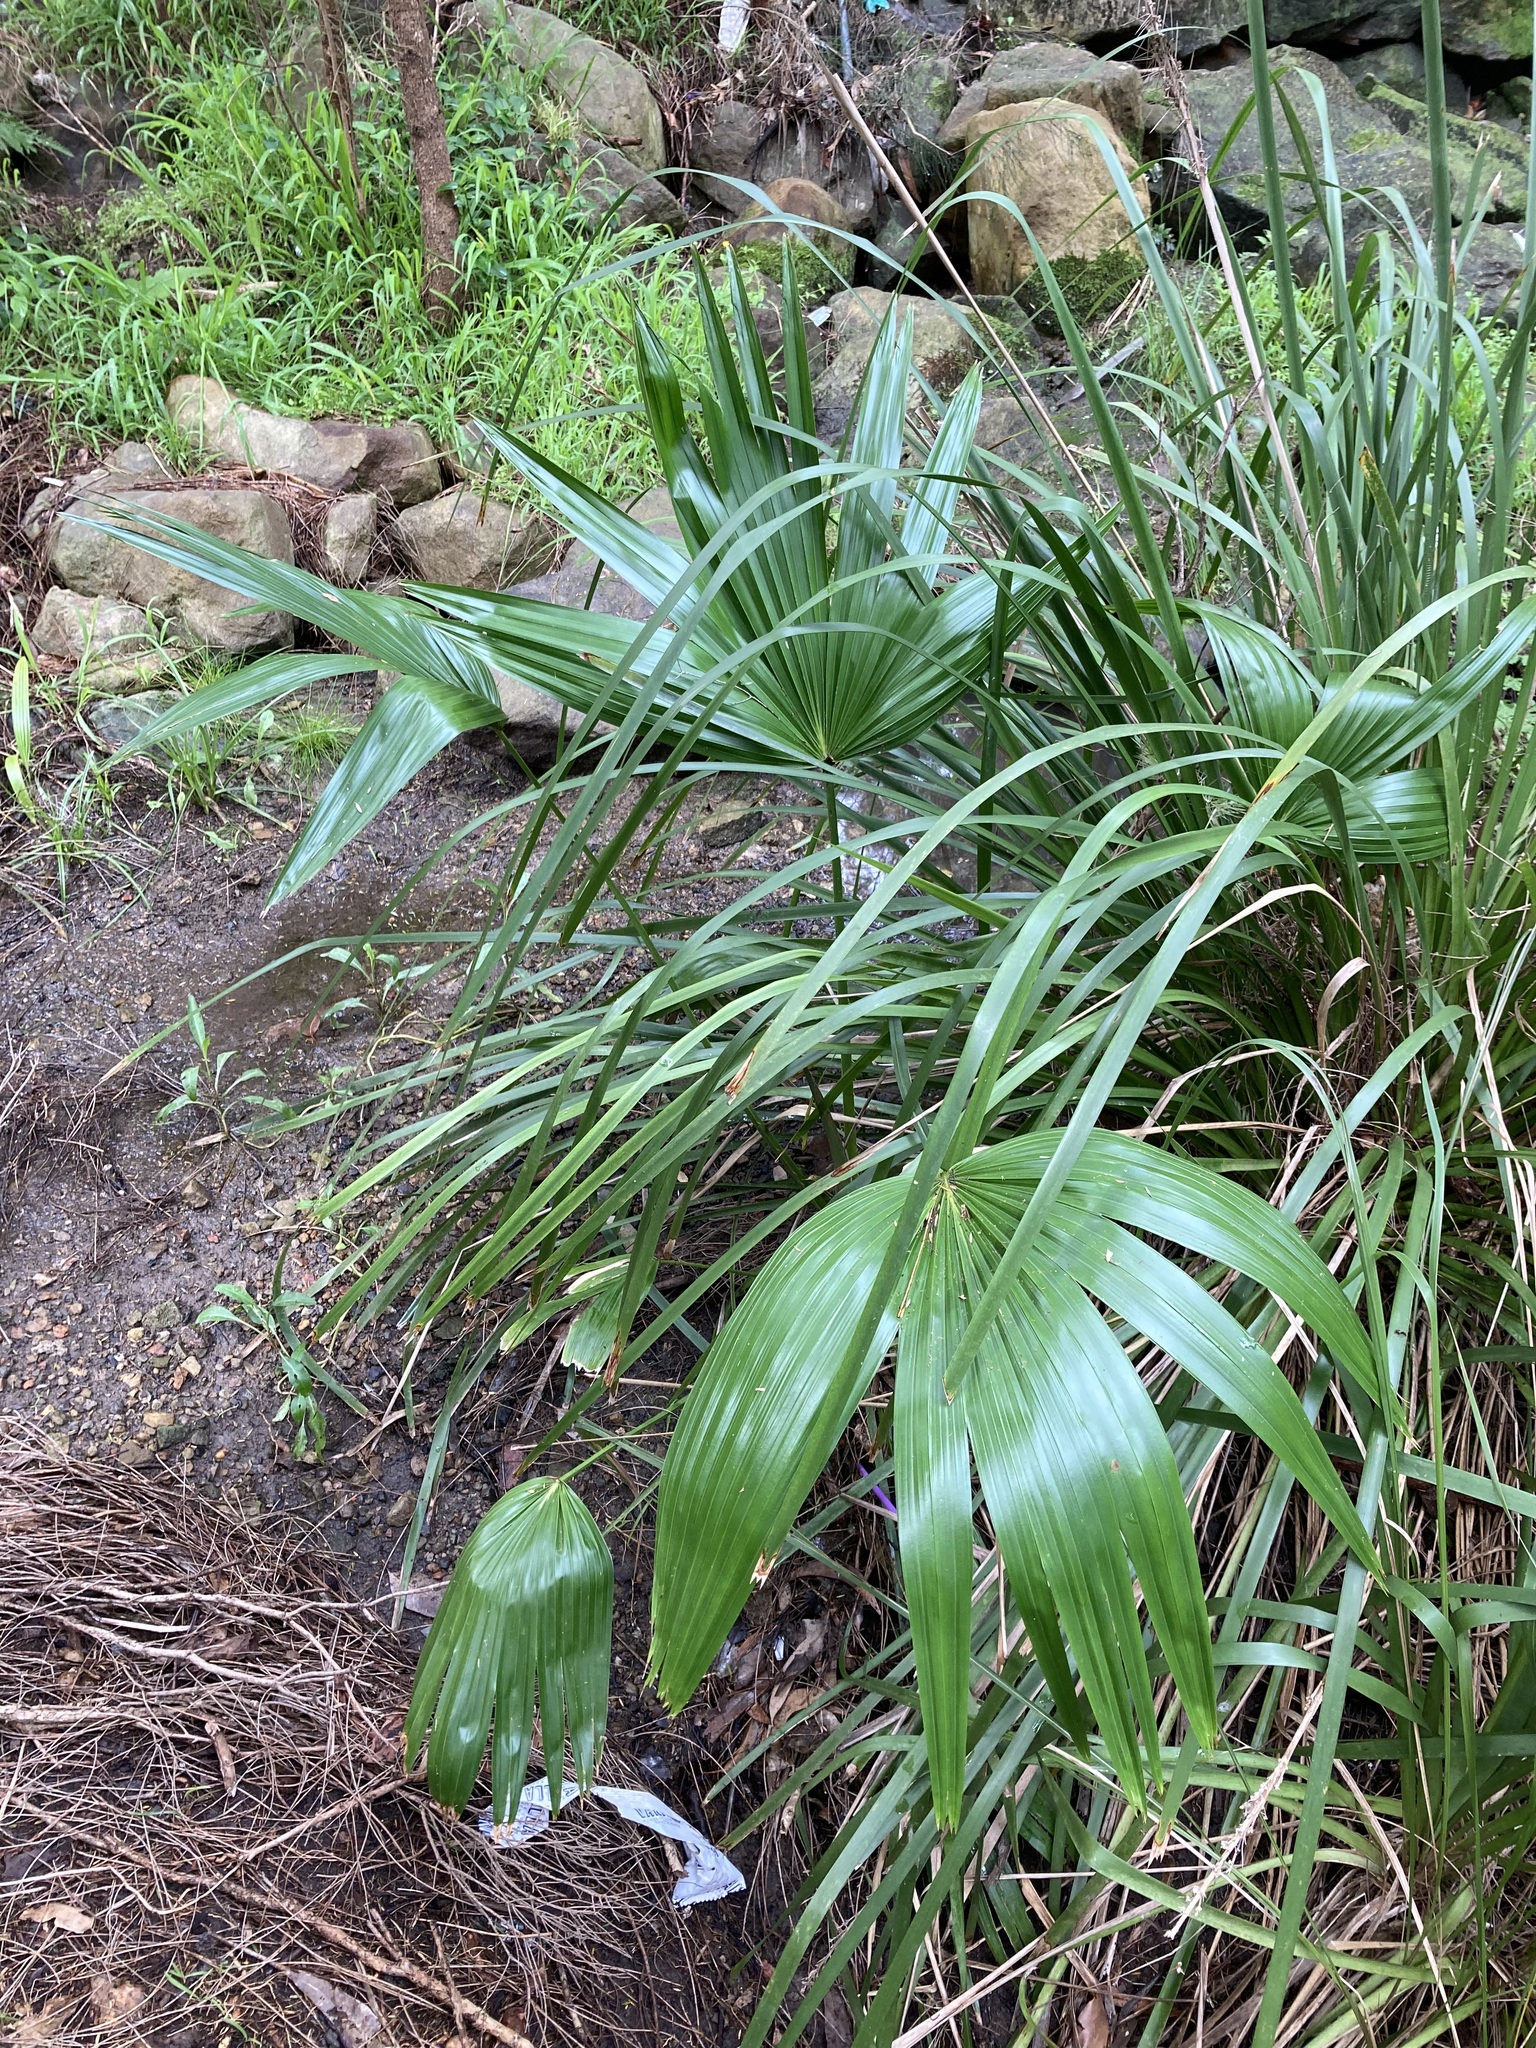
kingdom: Plantae
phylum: Tracheophyta
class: Liliopsida
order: Arecales
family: Arecaceae
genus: Livistona
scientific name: Livistona australis
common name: Cabbage fan palm
